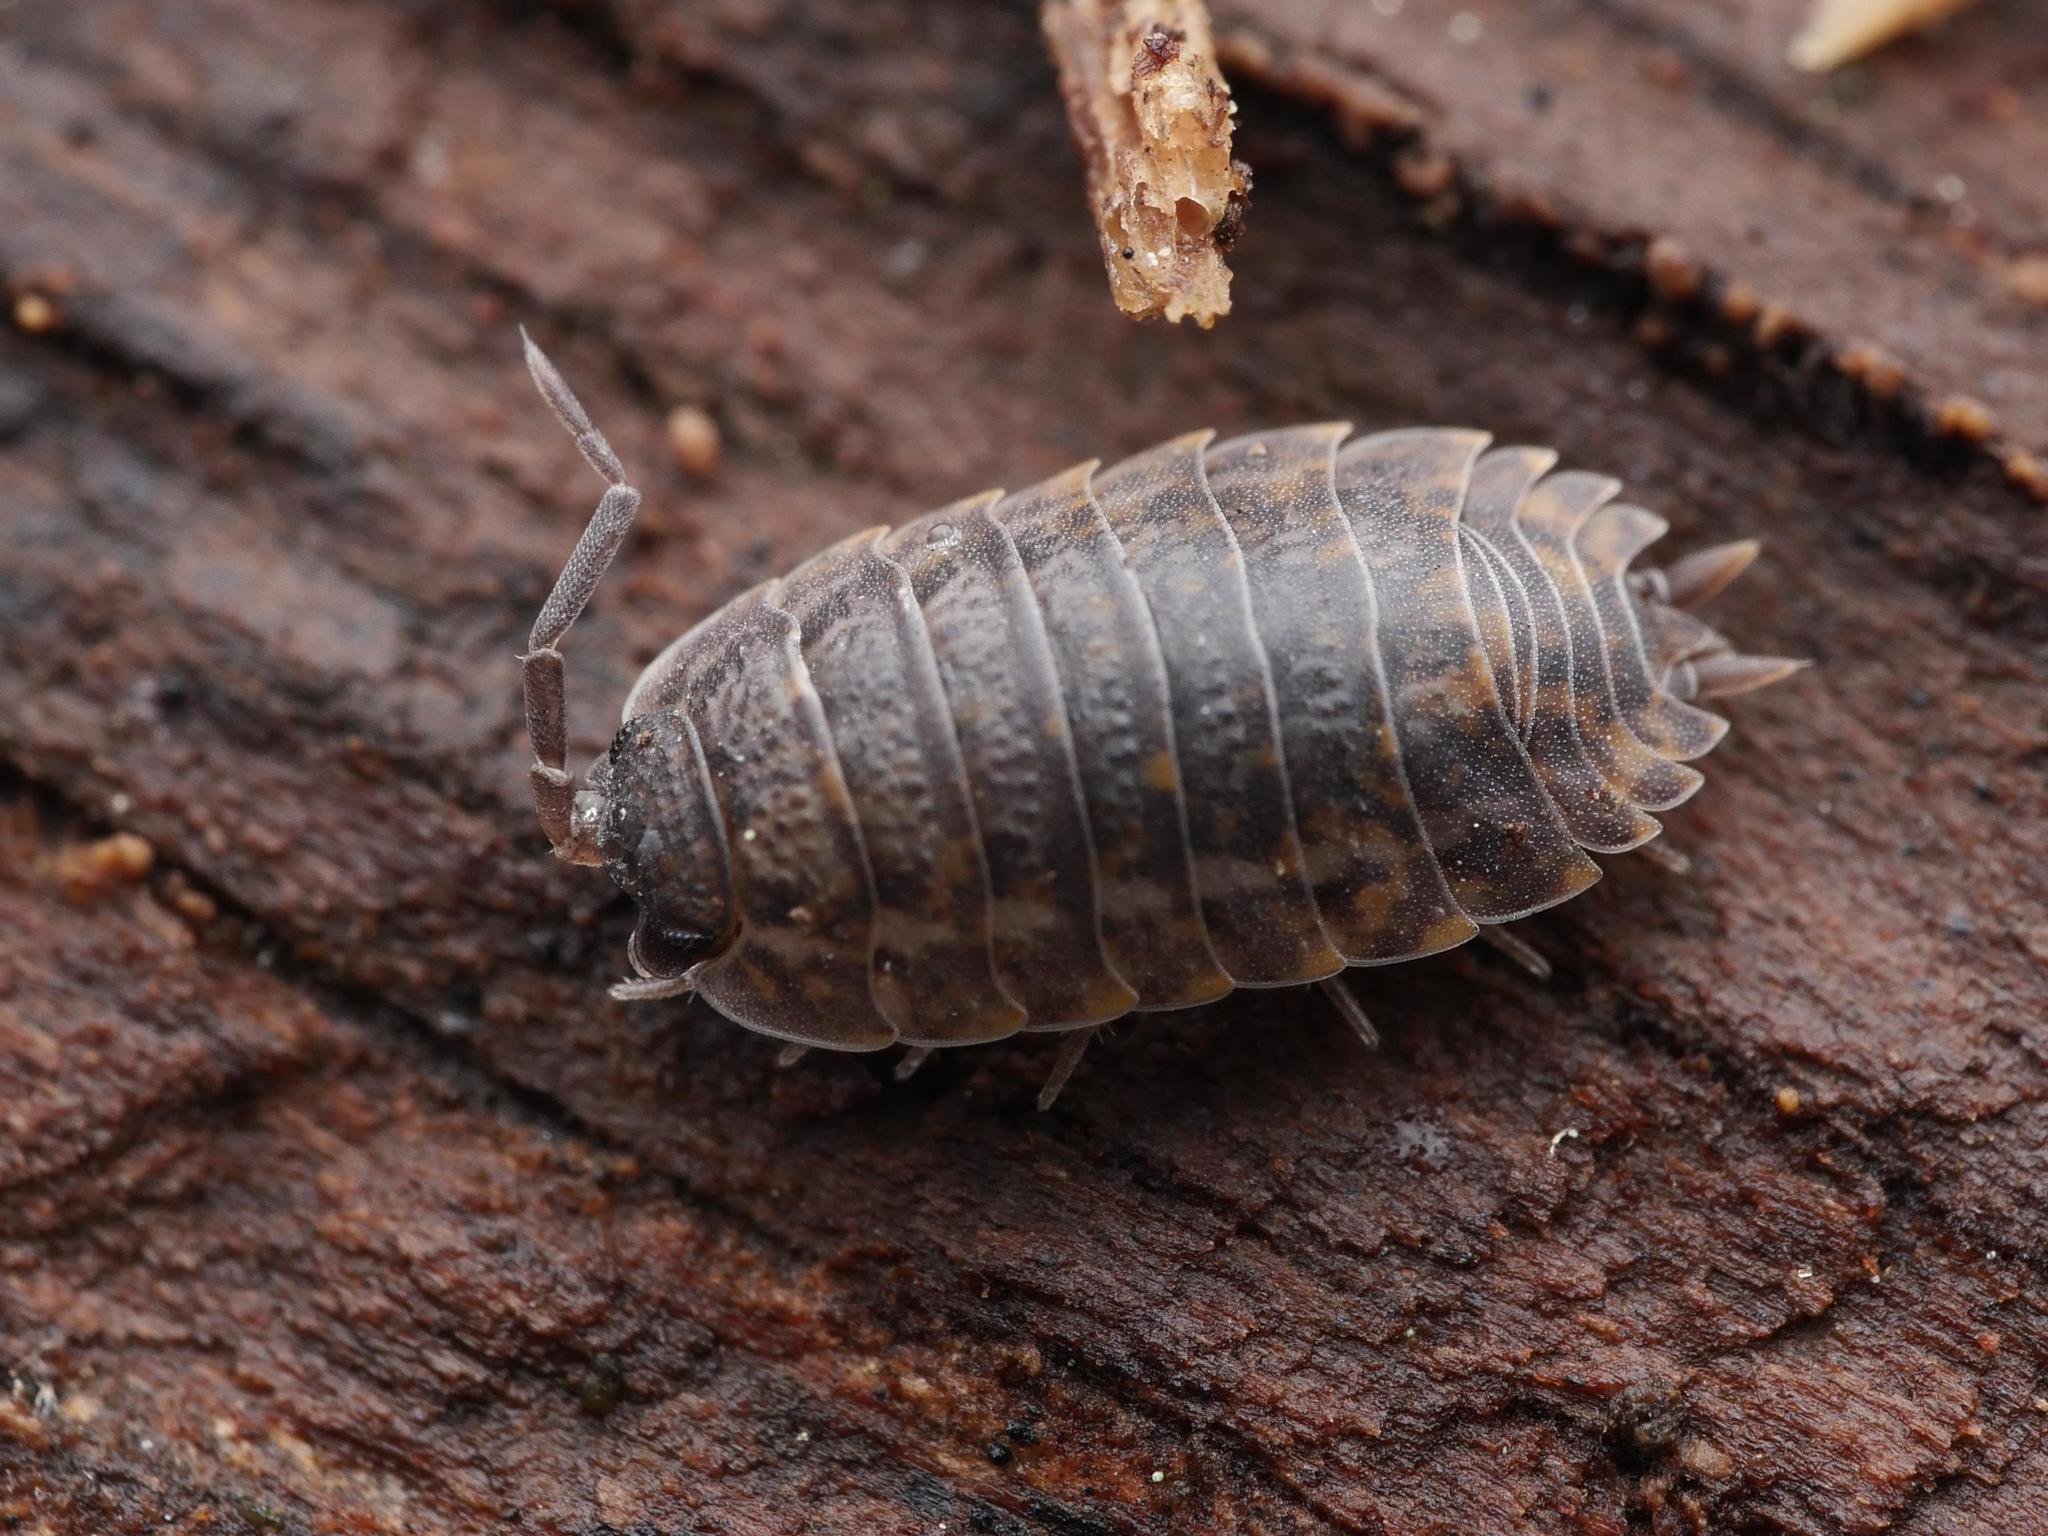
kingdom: Animalia
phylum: Arthropoda
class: Malacostraca
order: Isopoda
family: Trachelipodidae
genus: Trachelipus
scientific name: Trachelipus rathkii
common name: Isopod
